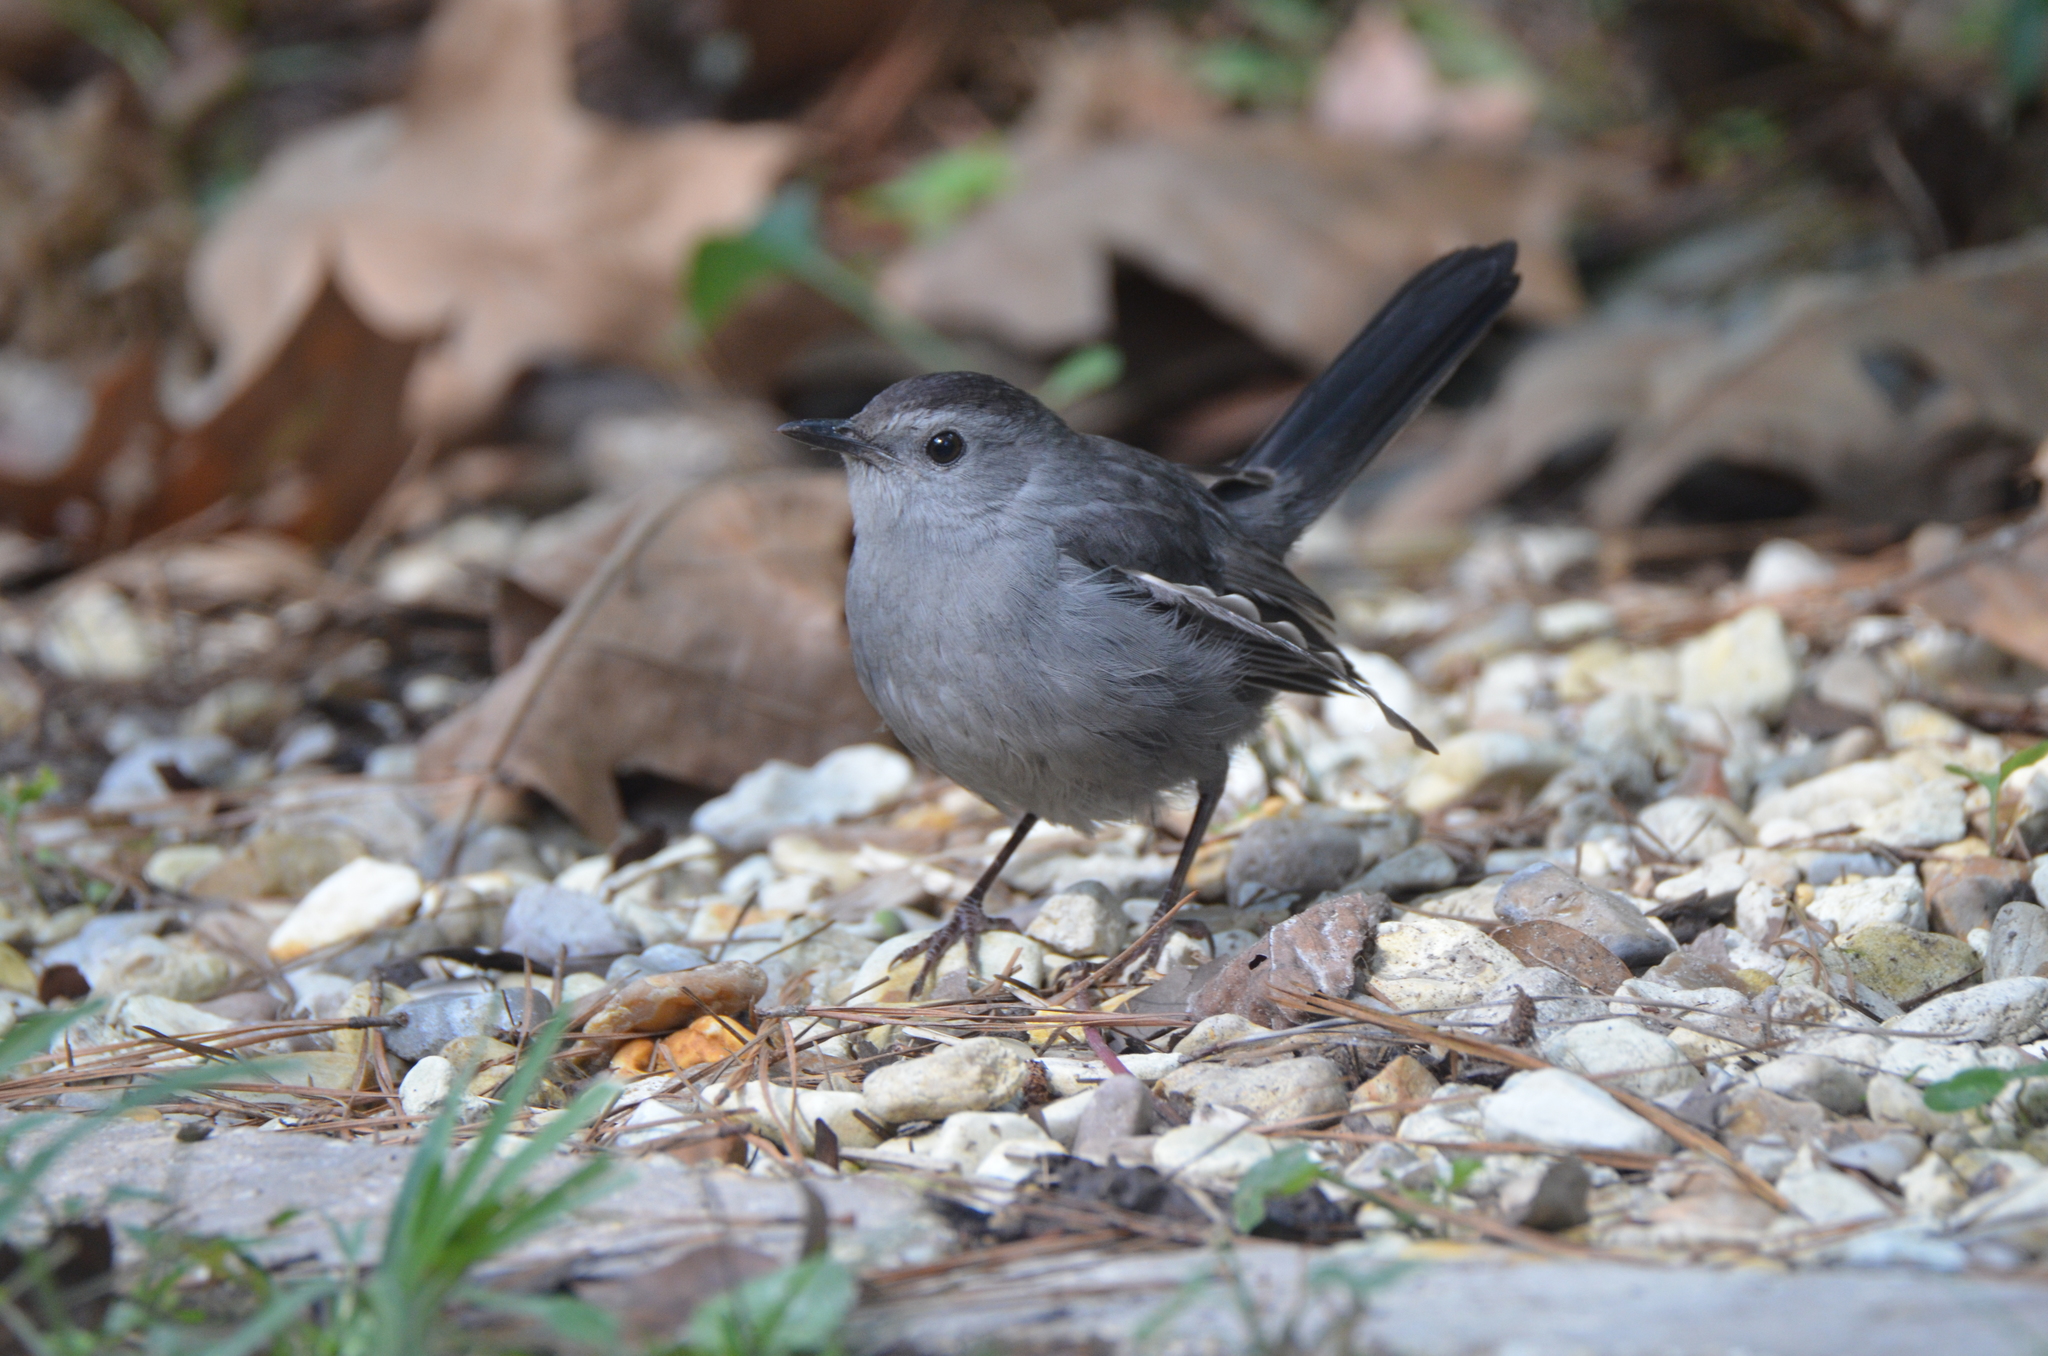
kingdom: Animalia
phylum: Chordata
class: Aves
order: Passeriformes
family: Mimidae
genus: Dumetella
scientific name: Dumetella carolinensis
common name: Gray catbird
